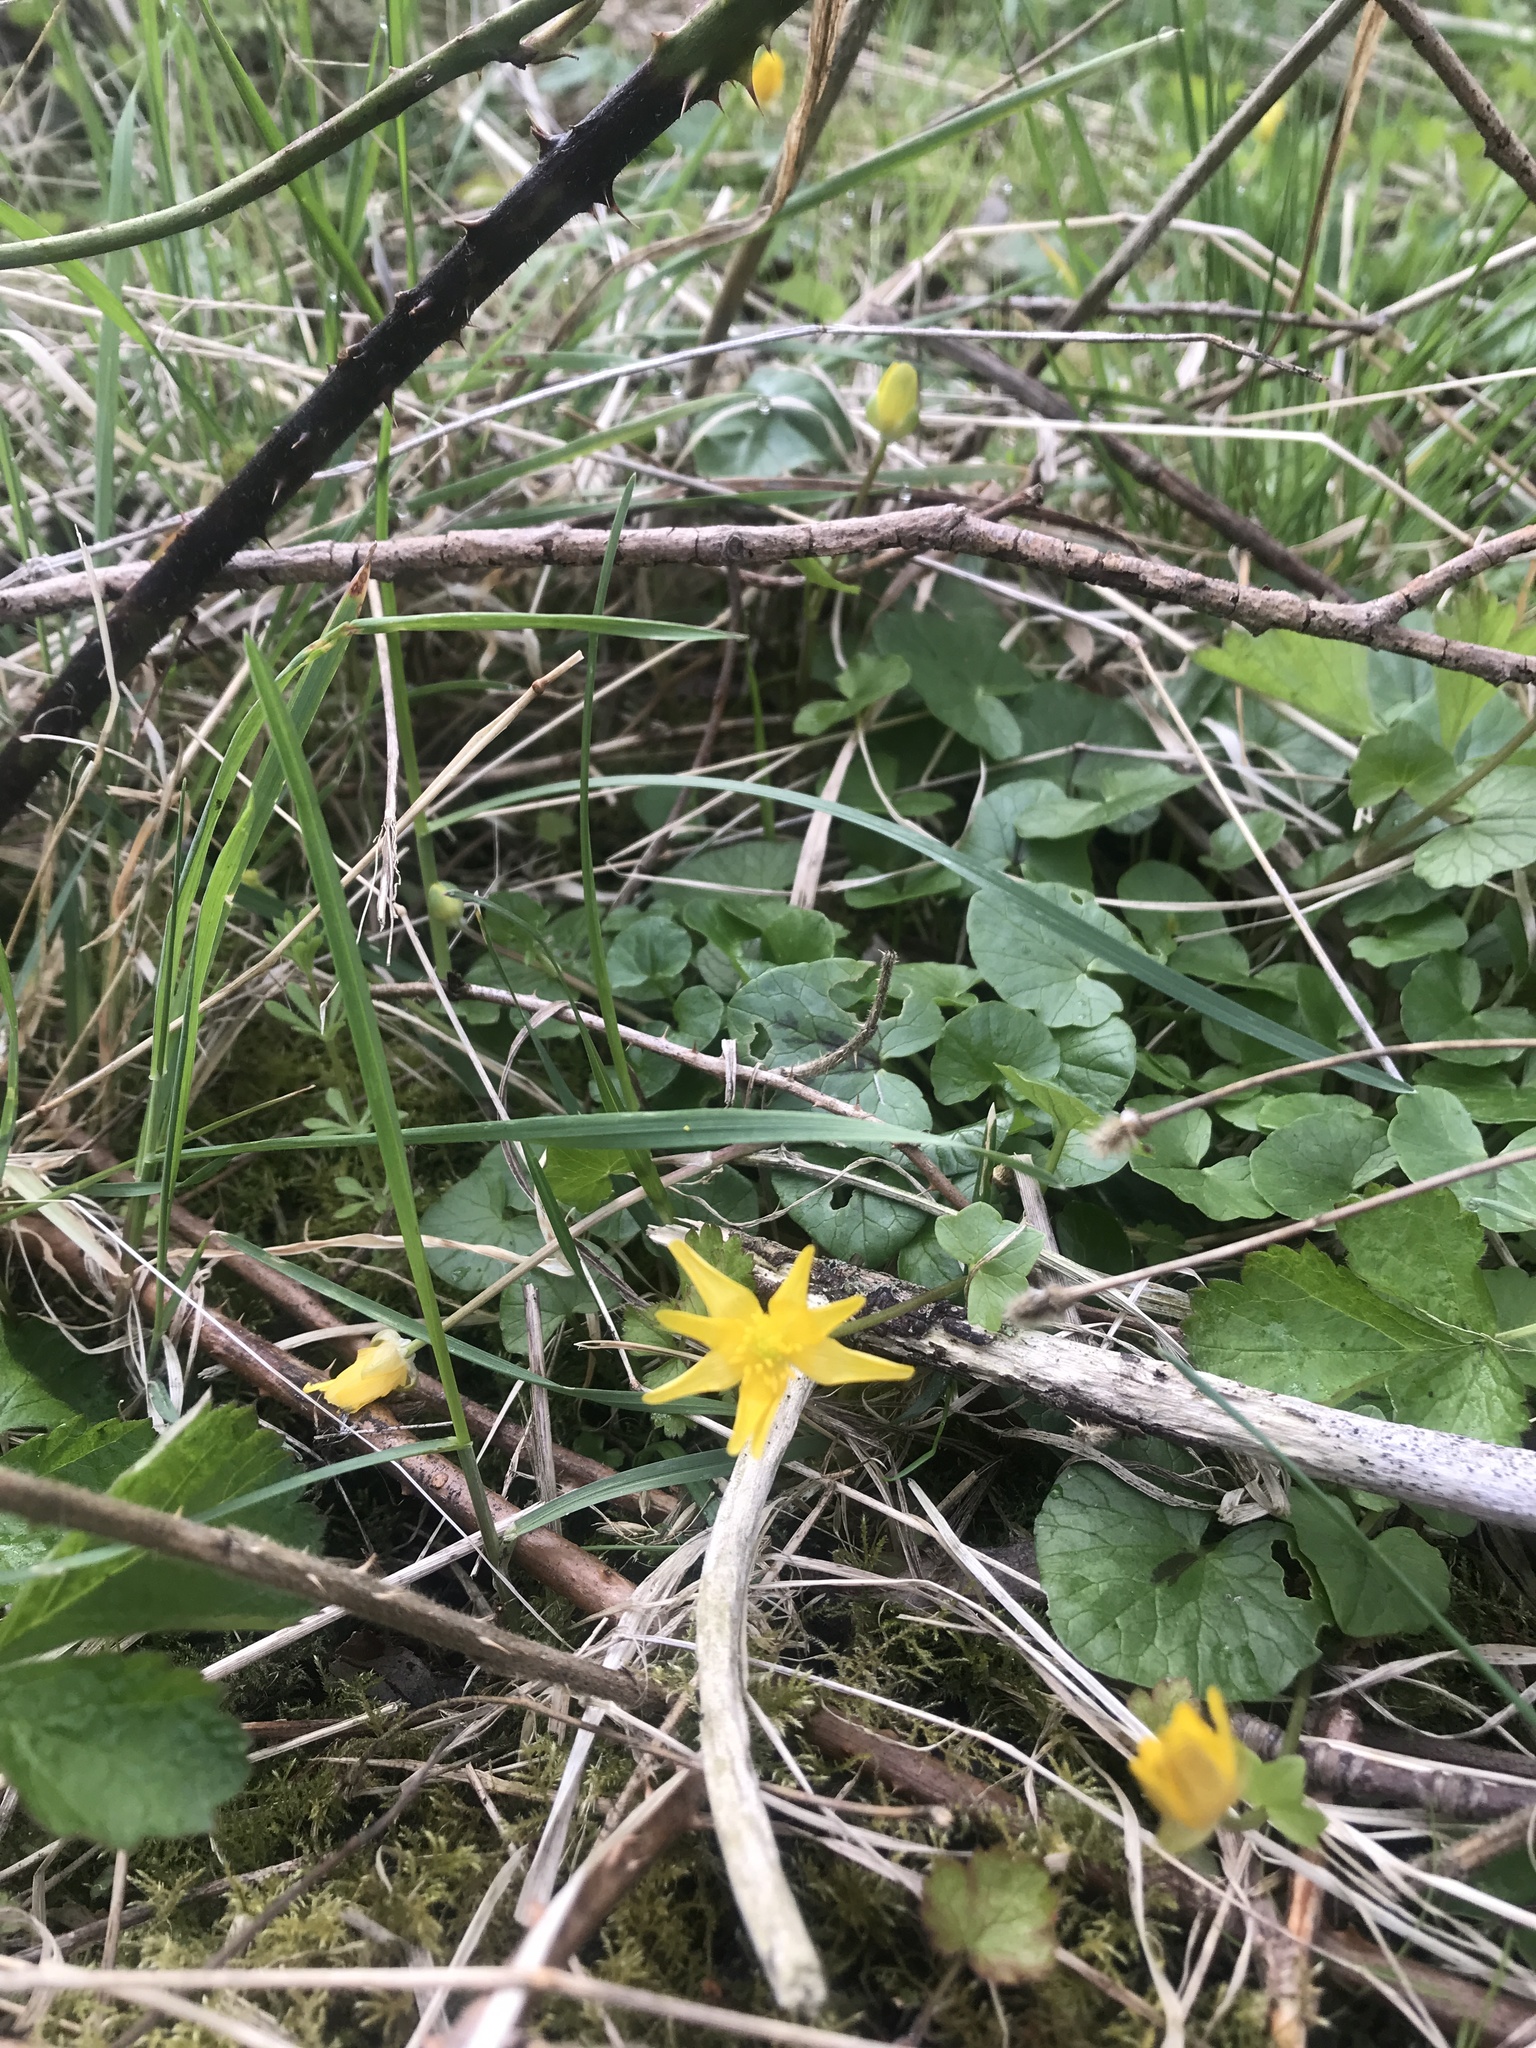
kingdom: Plantae
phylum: Tracheophyta
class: Magnoliopsida
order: Ranunculales
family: Ranunculaceae
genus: Ficaria
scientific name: Ficaria verna
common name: Lesser celandine
